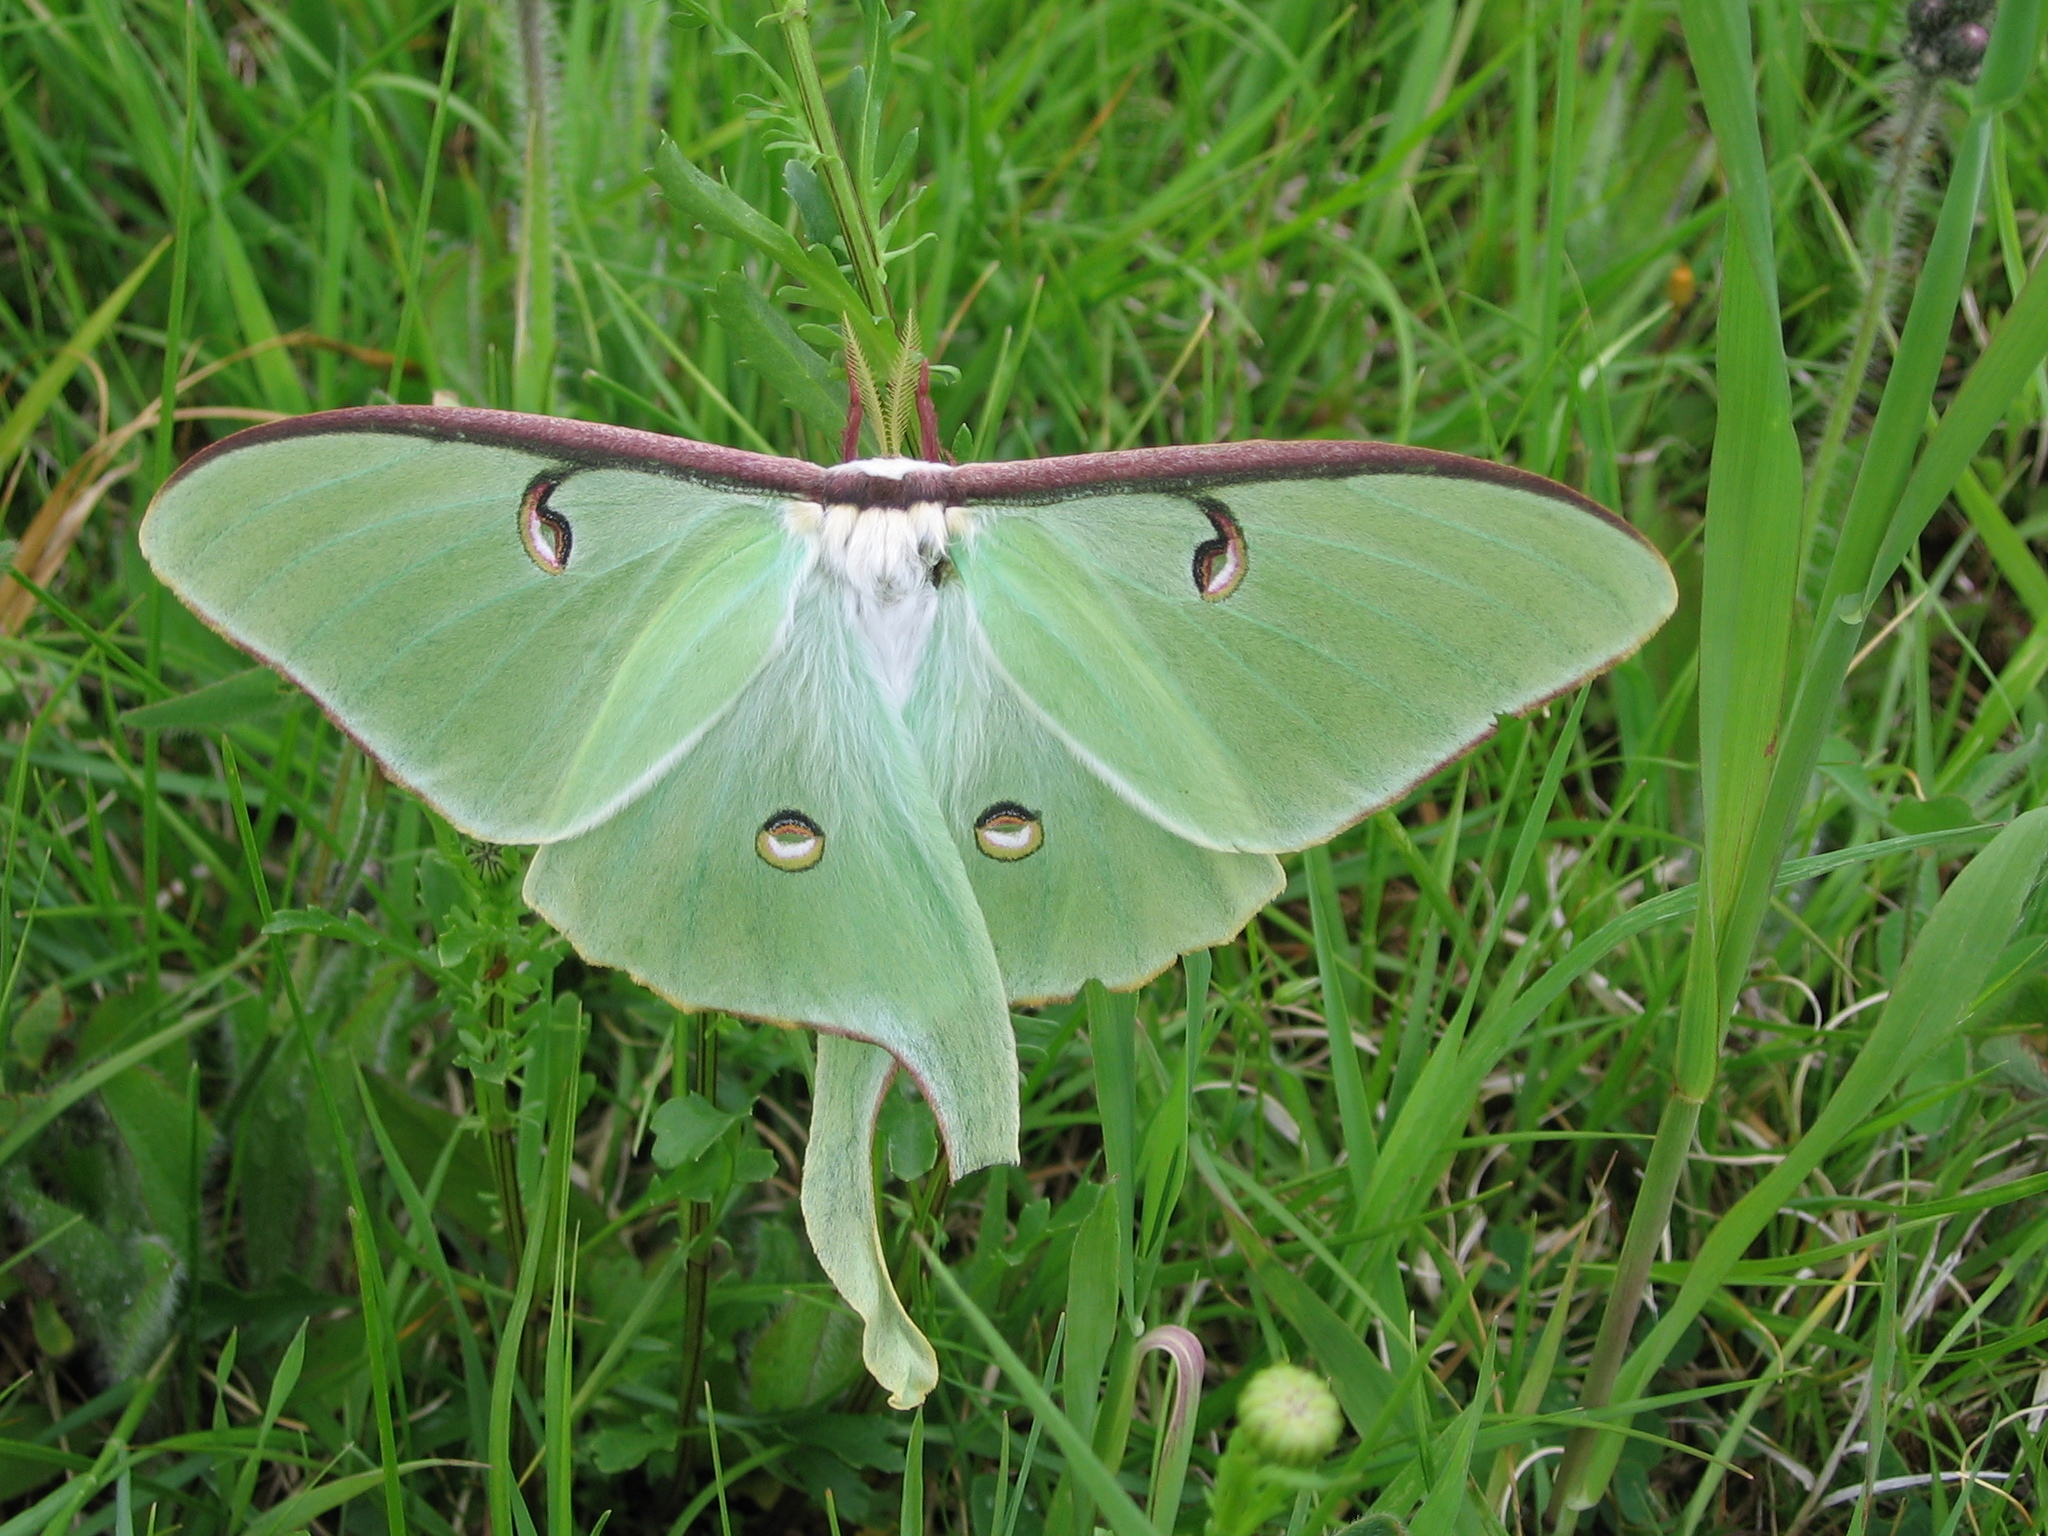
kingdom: Animalia
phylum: Arthropoda
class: Insecta
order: Lepidoptera
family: Saturniidae
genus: Actias
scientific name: Actias luna
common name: Luna moth
